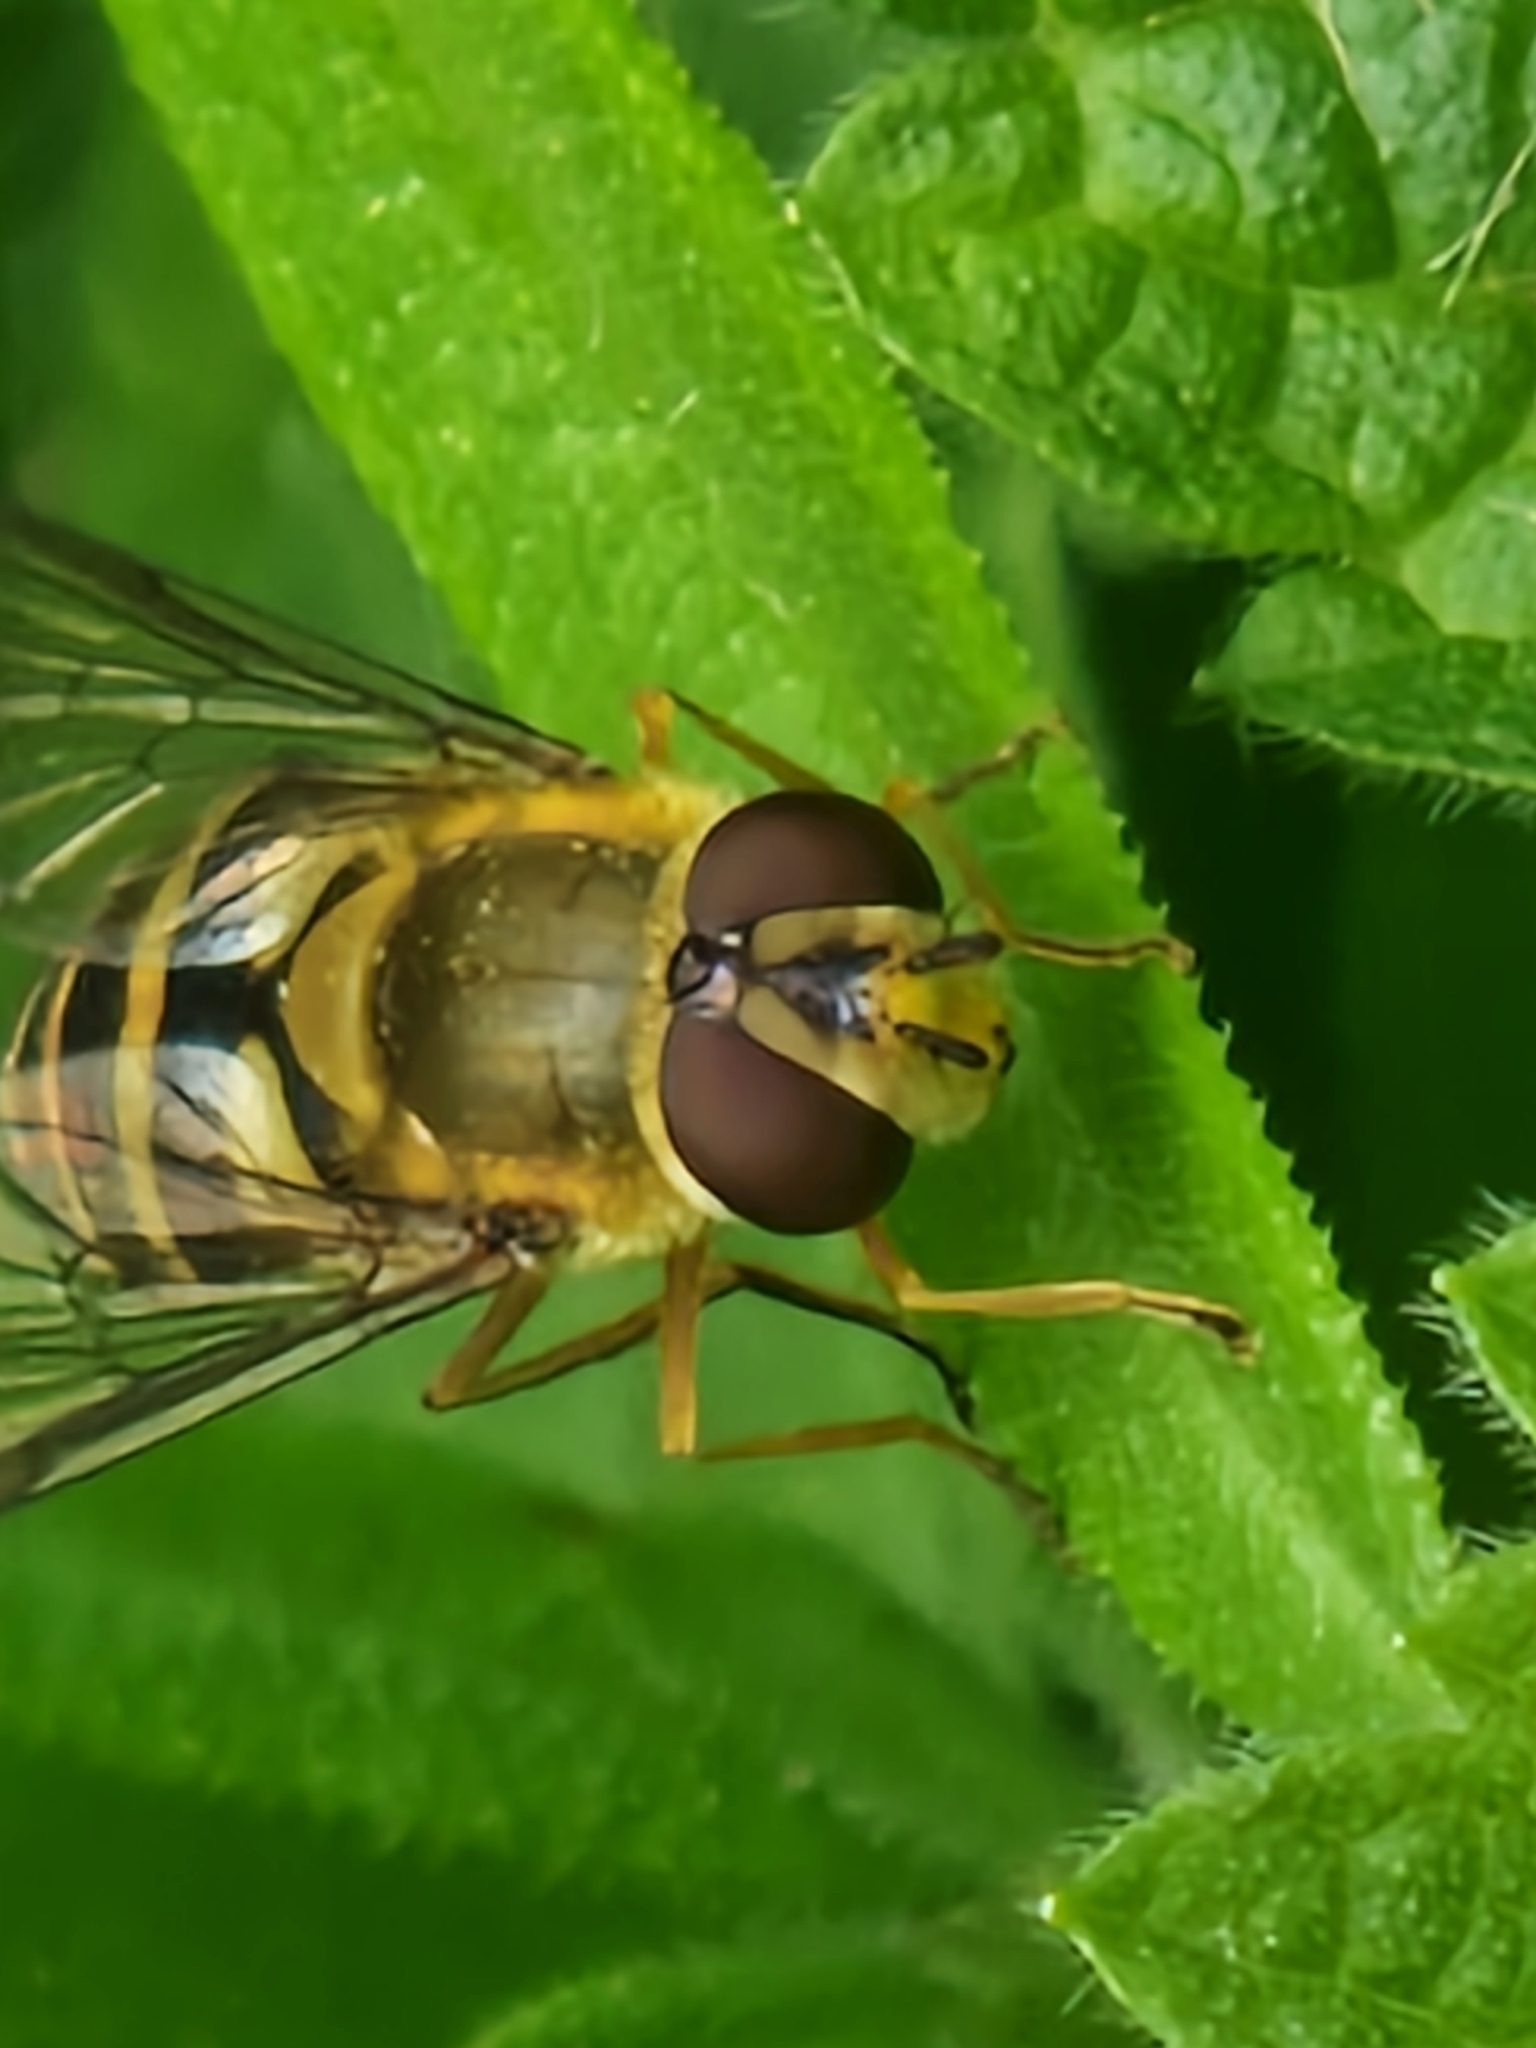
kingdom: Animalia
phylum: Arthropoda
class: Insecta
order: Diptera
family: Syrphidae
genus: Syrphus
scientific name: Syrphus
